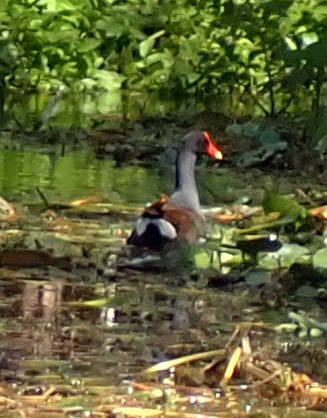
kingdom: Animalia
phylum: Chordata
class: Aves
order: Gruiformes
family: Rallidae
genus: Gallinula
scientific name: Gallinula chloropus
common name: Common moorhen
